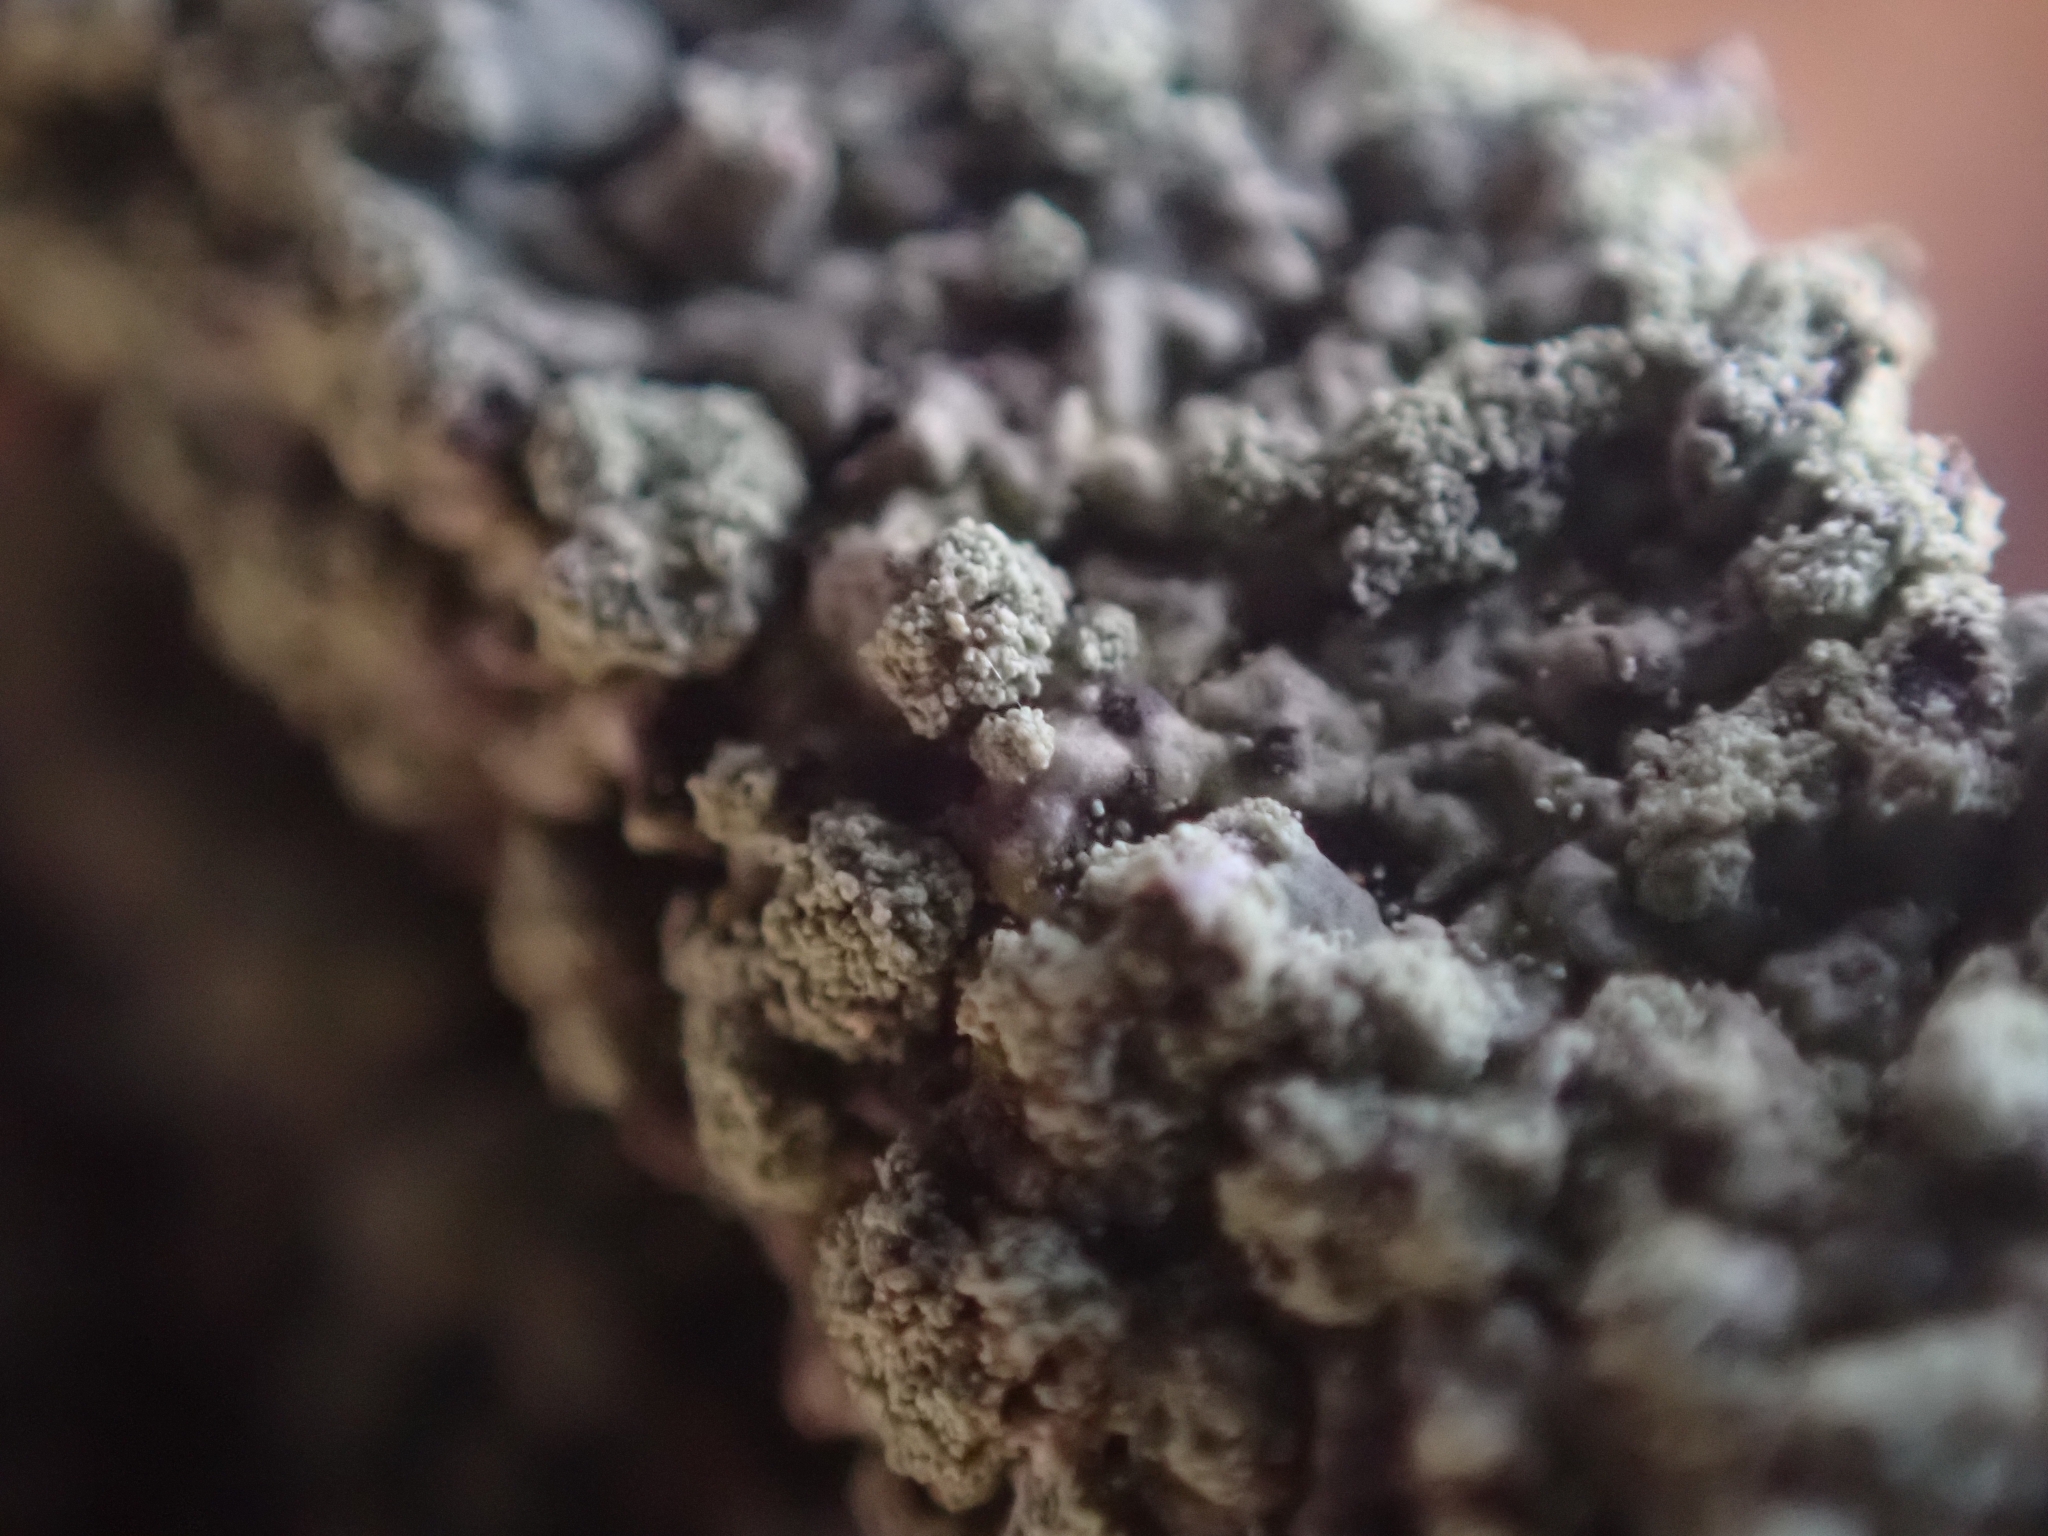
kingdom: Fungi
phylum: Ascomycota
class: Lecanoromycetes
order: Lecanorales
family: Parmeliaceae
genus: Parmeliopsis
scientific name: Parmeliopsis ambigua
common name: Green starburst lichen
